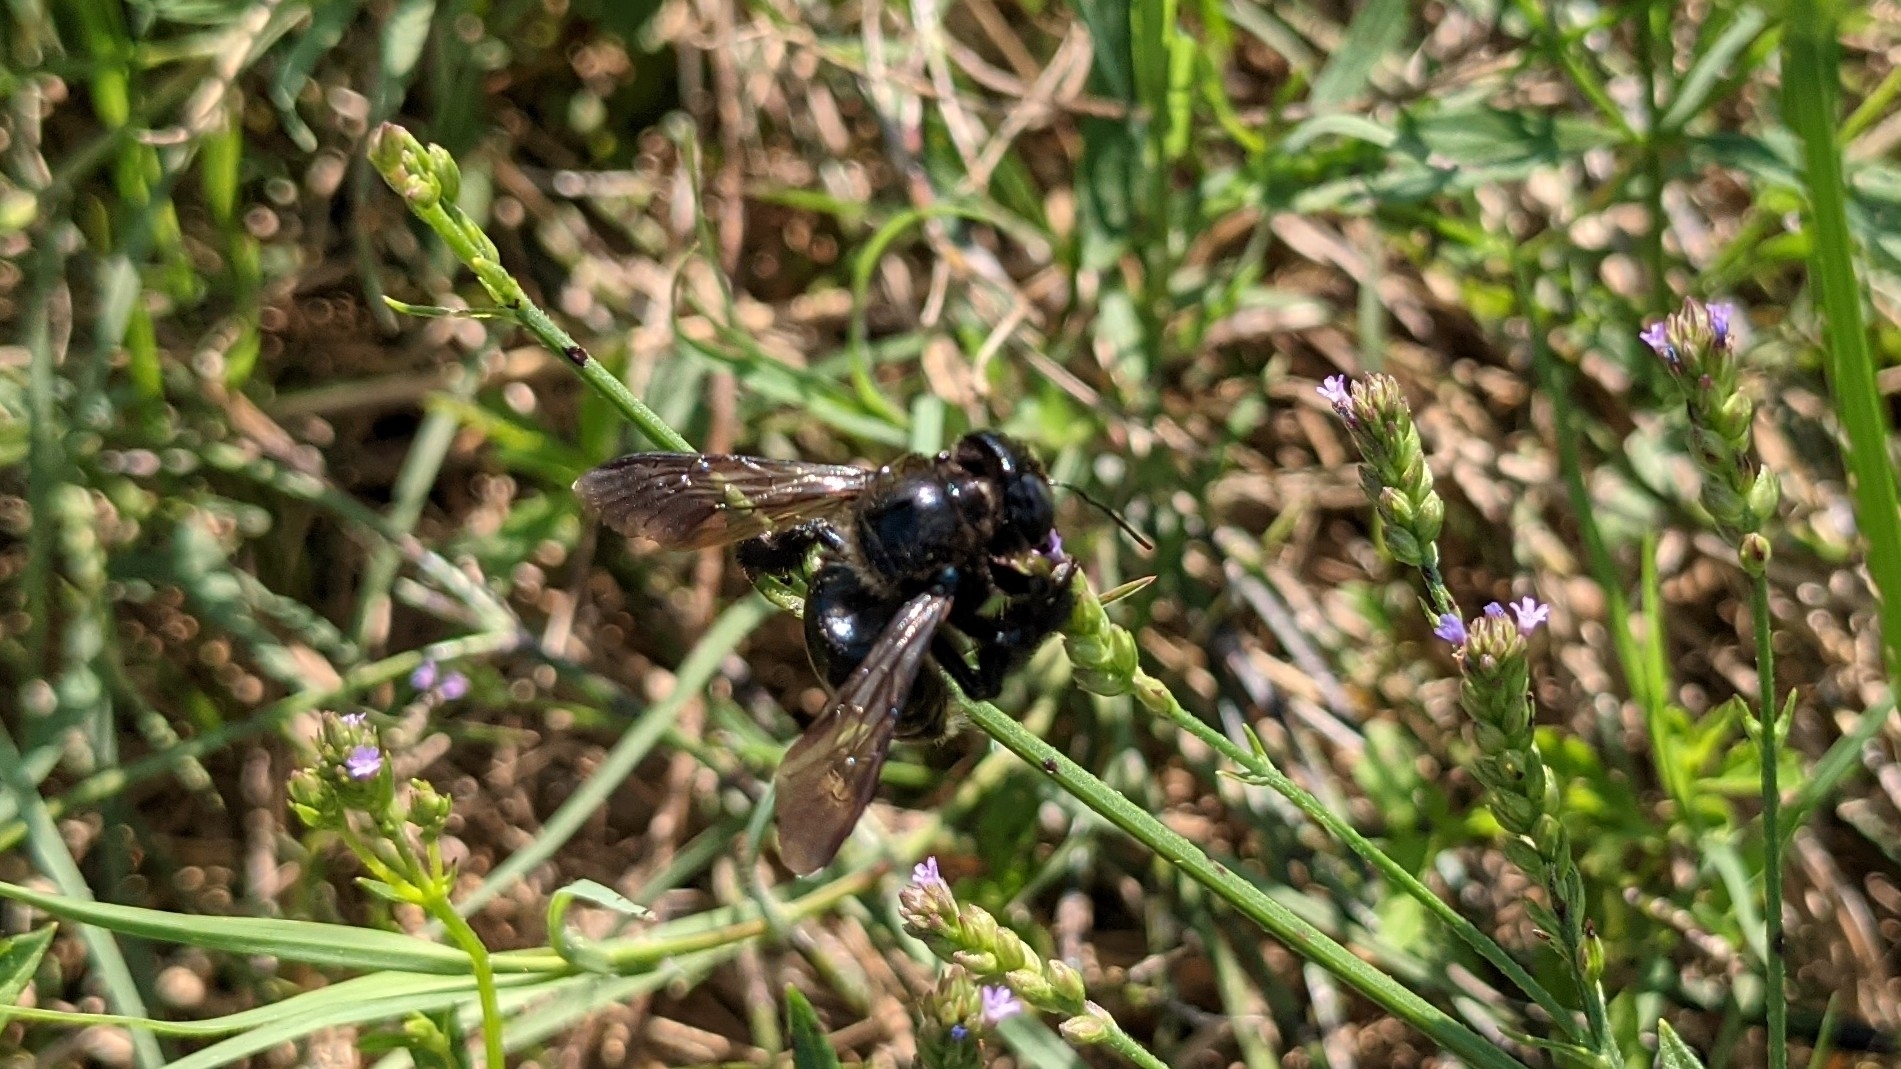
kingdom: Animalia
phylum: Arthropoda
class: Insecta
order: Hymenoptera
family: Apidae
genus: Xylocopa
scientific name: Xylocopa micans
